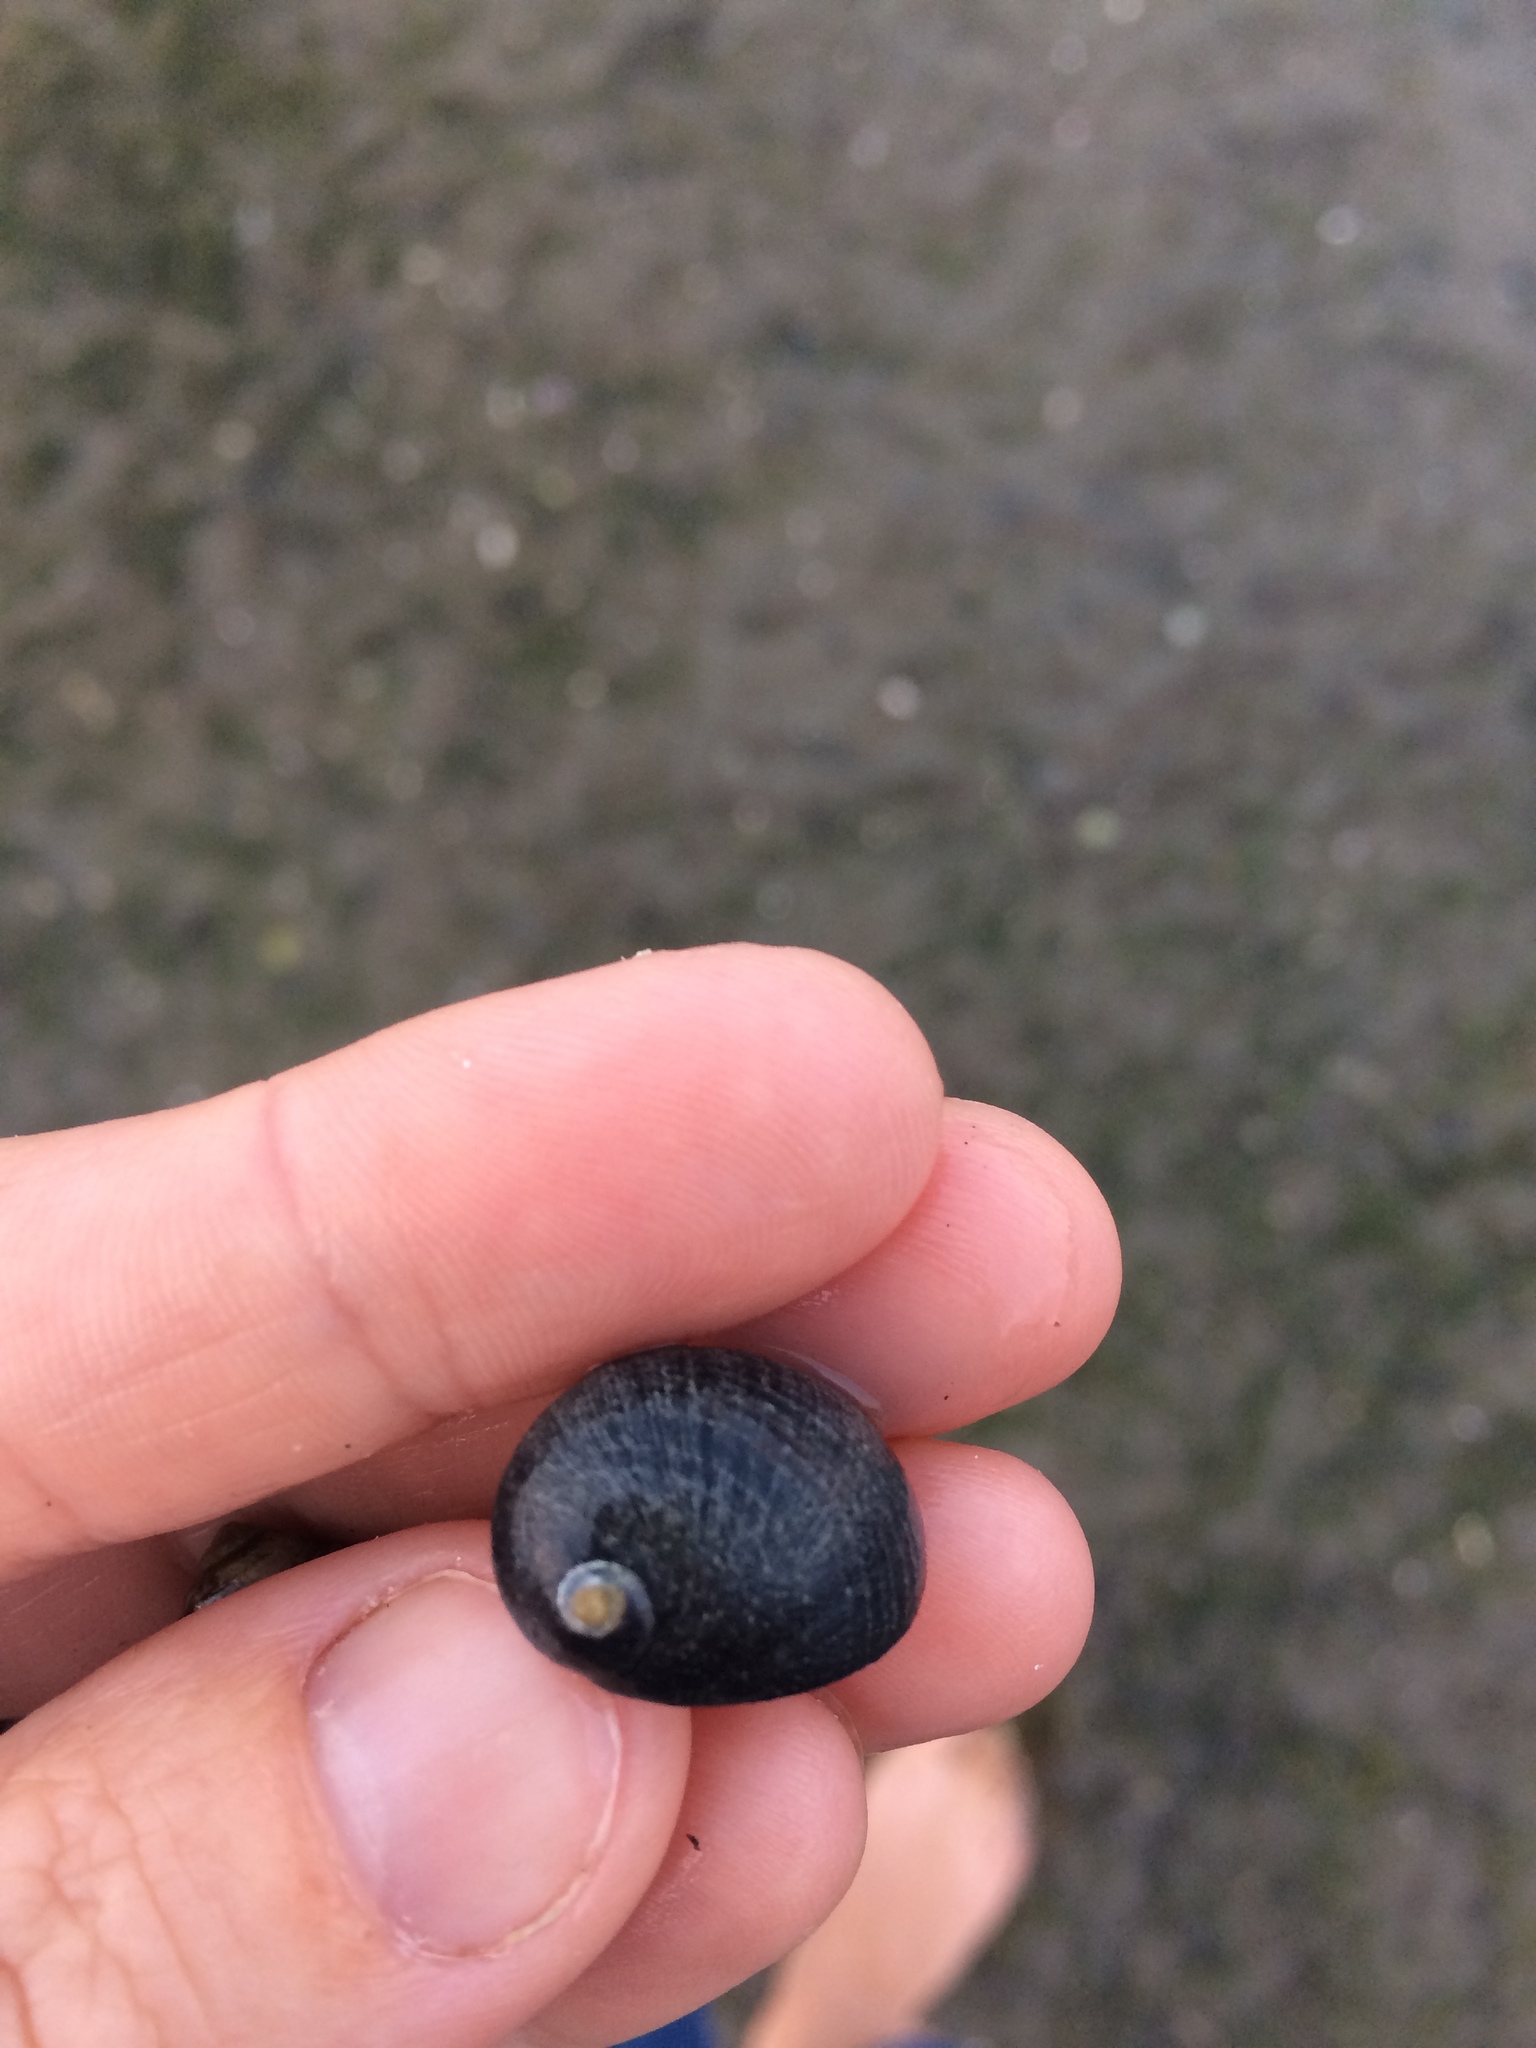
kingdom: Animalia
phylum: Mollusca
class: Gastropoda
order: Cycloneritida
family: Neritidae
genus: Nerita
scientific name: Nerita melanotragus
